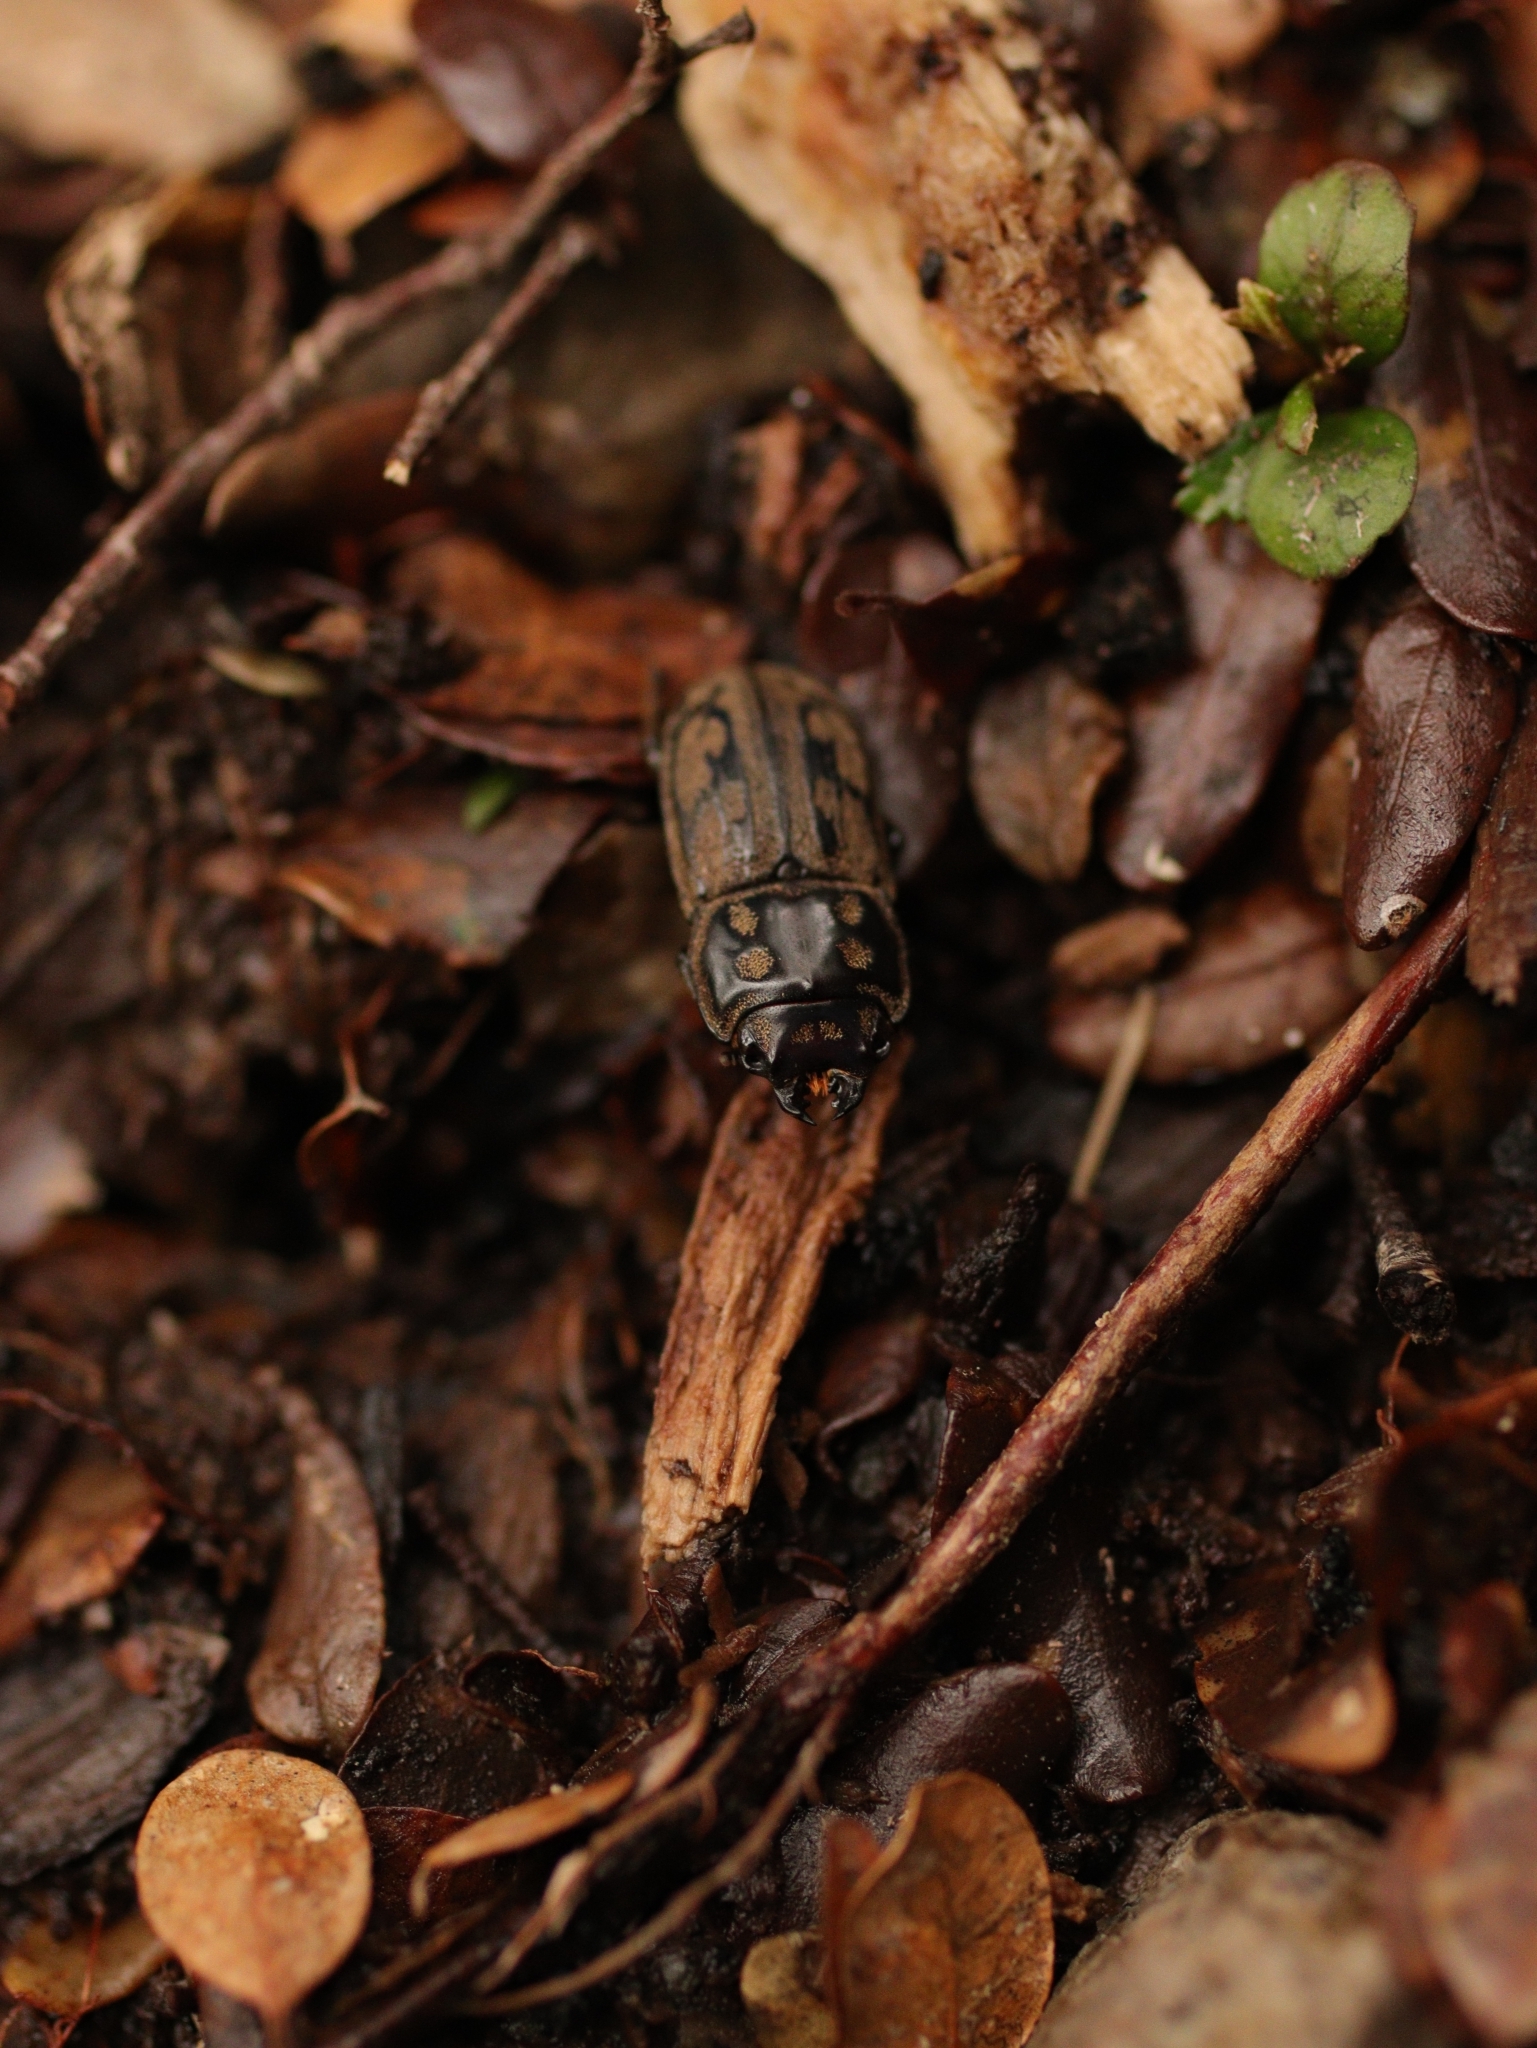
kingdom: Animalia
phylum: Arthropoda
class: Insecta
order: Coleoptera
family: Lucanidae
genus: Paralissotes
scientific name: Paralissotes reticulatus
